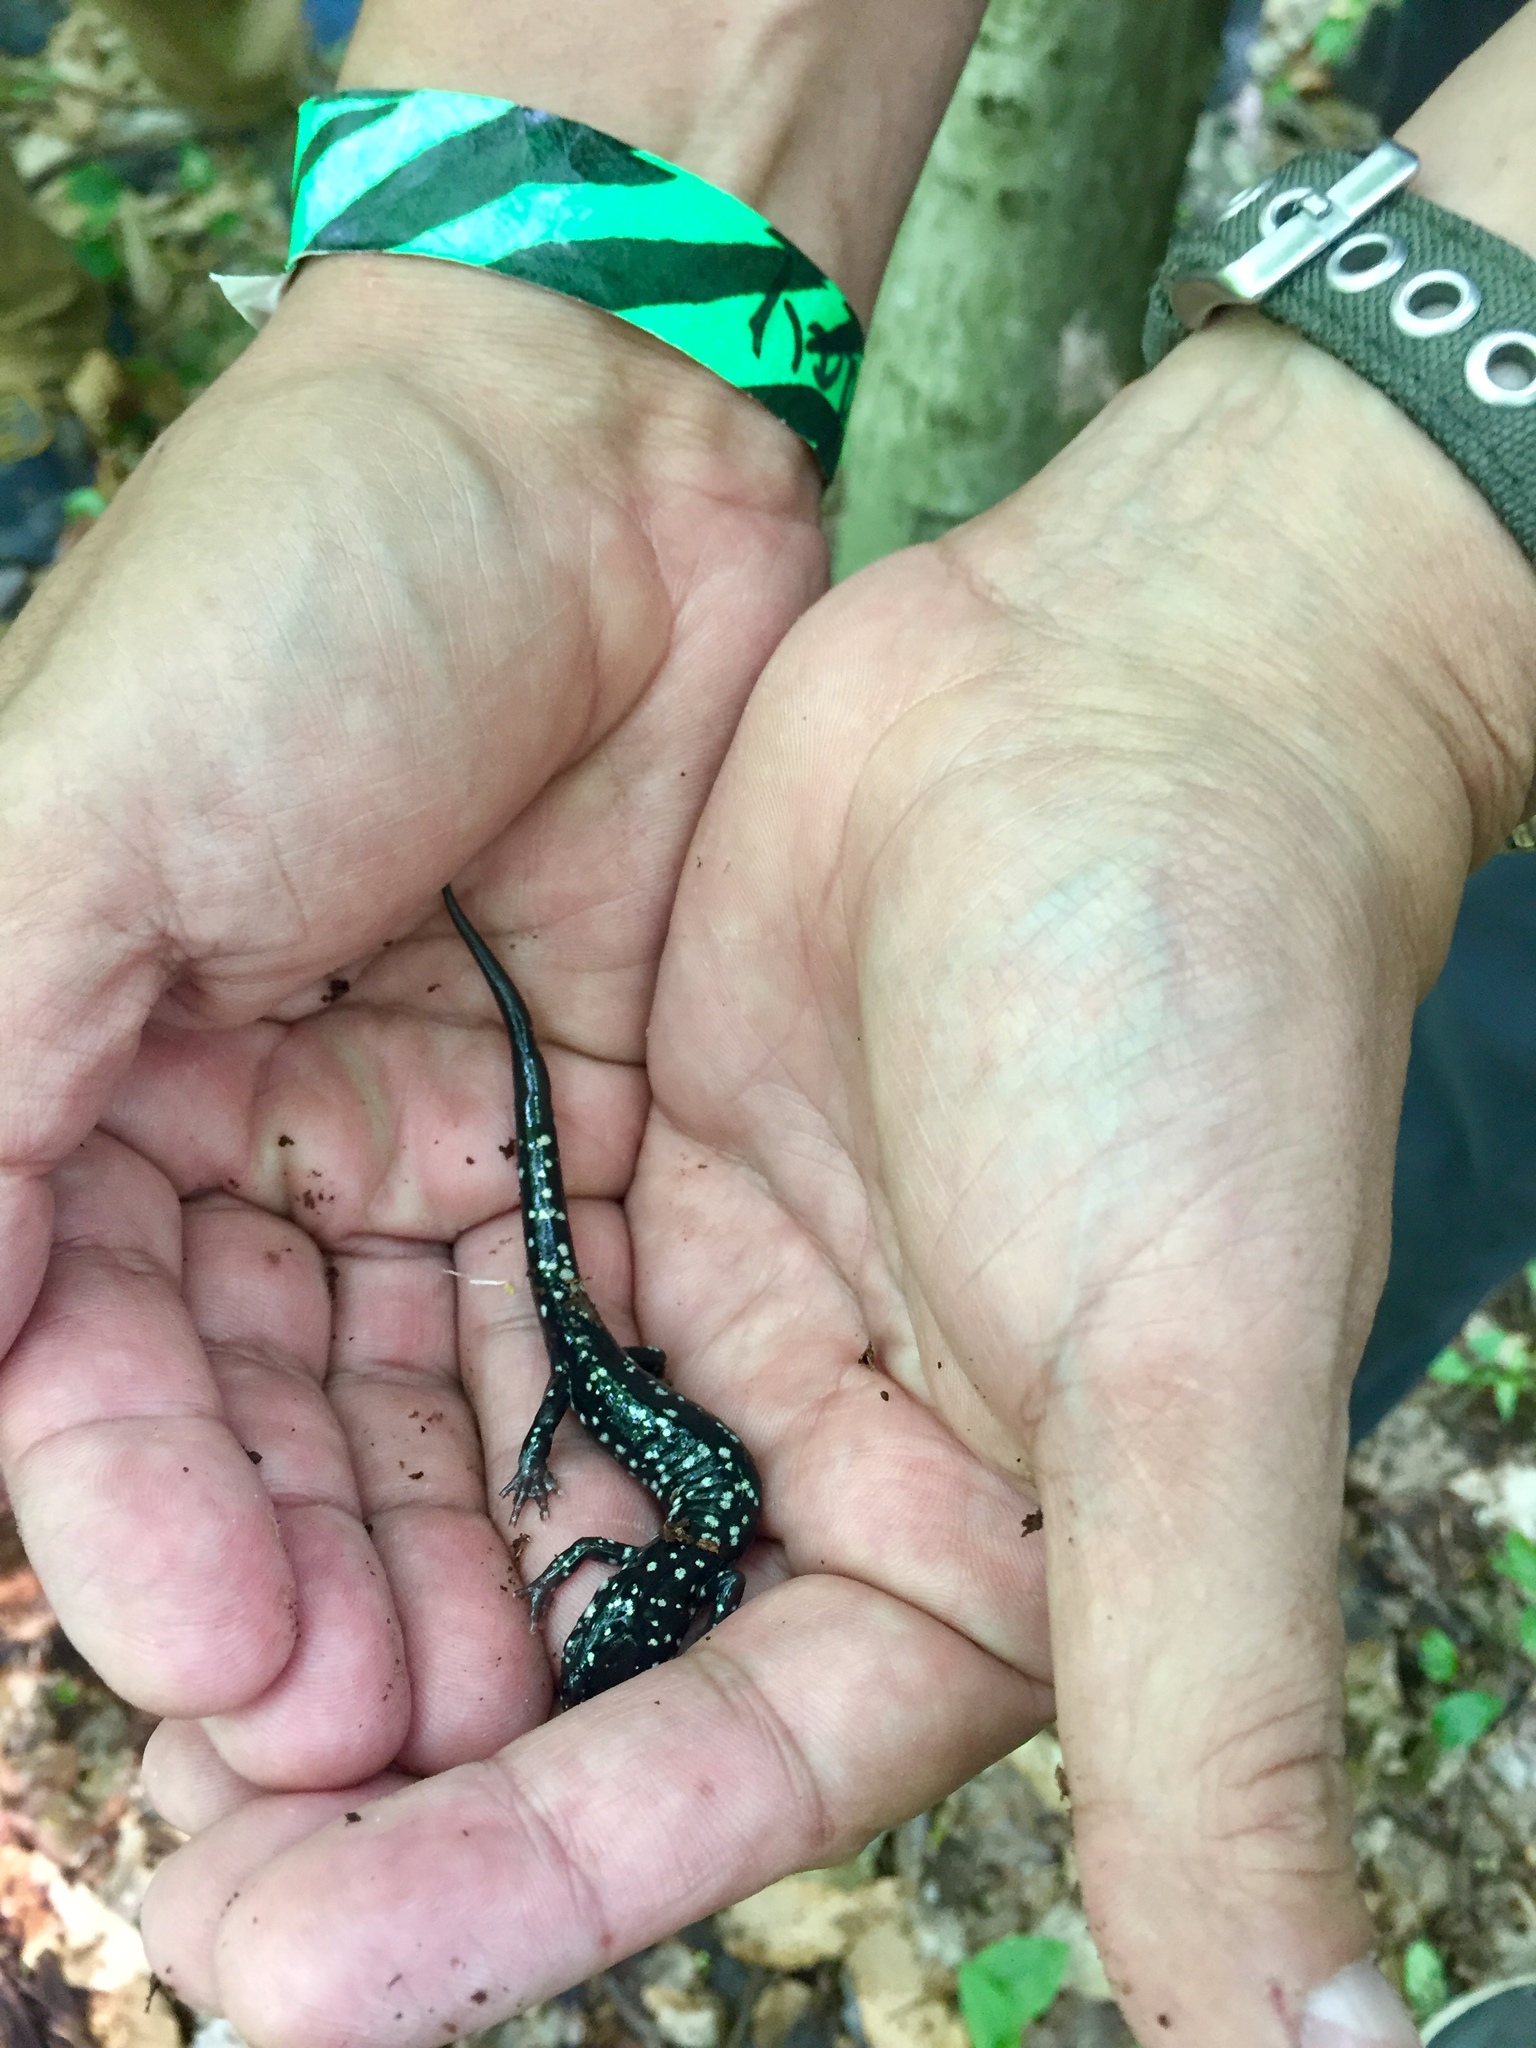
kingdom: Animalia
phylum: Chordata
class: Amphibia
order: Caudata
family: Plethodontidae
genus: Plethodon
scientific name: Plethodon glutinosus
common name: Northern slimy salamander
